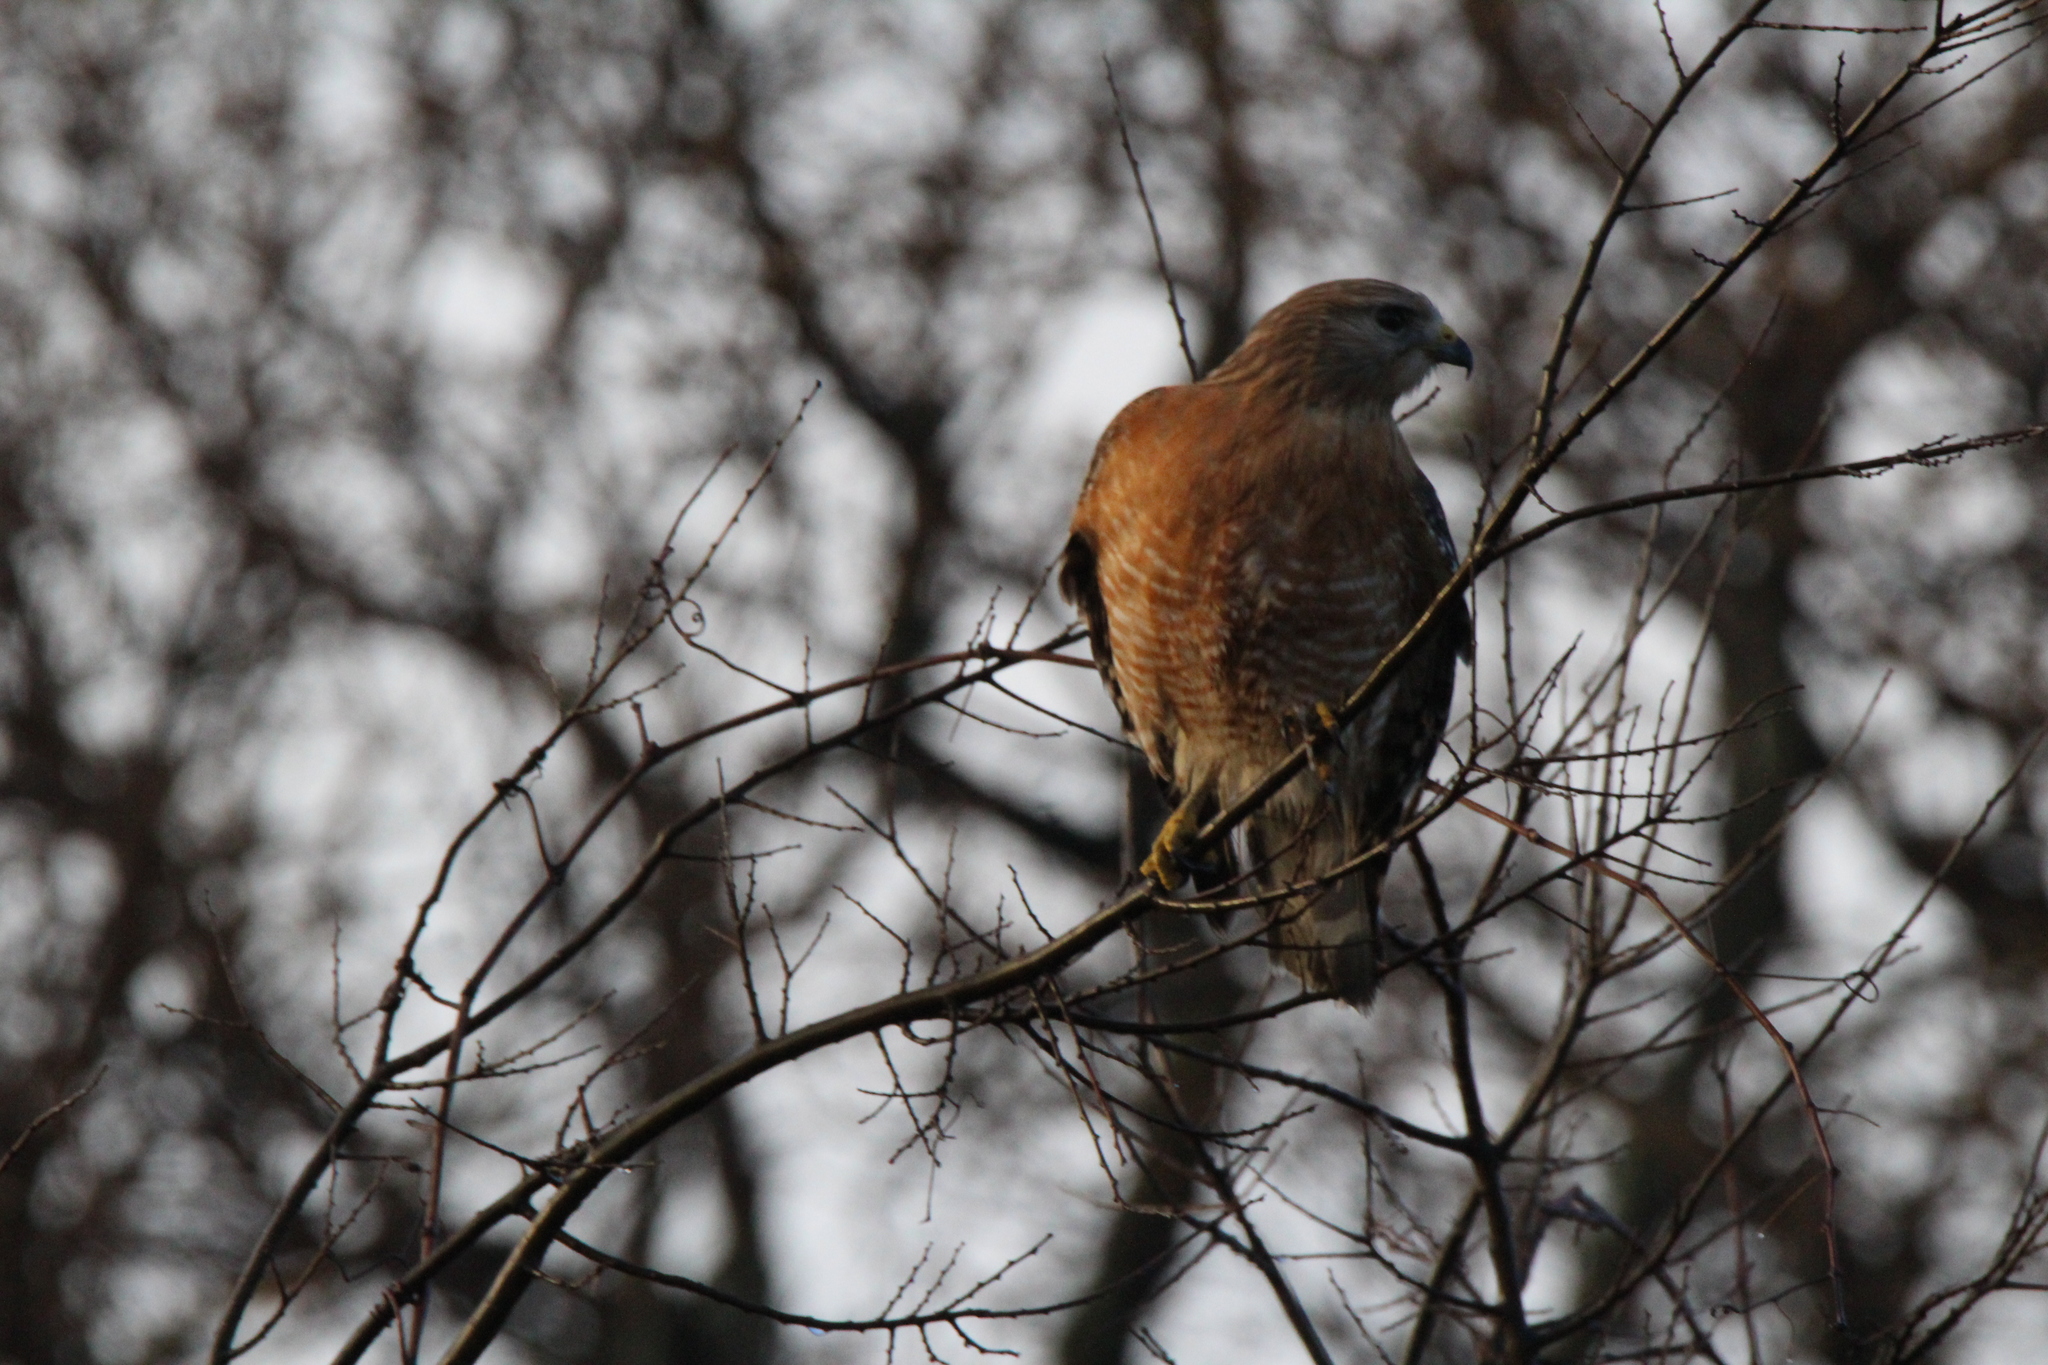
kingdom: Animalia
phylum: Chordata
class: Aves
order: Accipitriformes
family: Accipitridae
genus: Buteo
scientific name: Buteo lineatus
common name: Red-shouldered hawk
